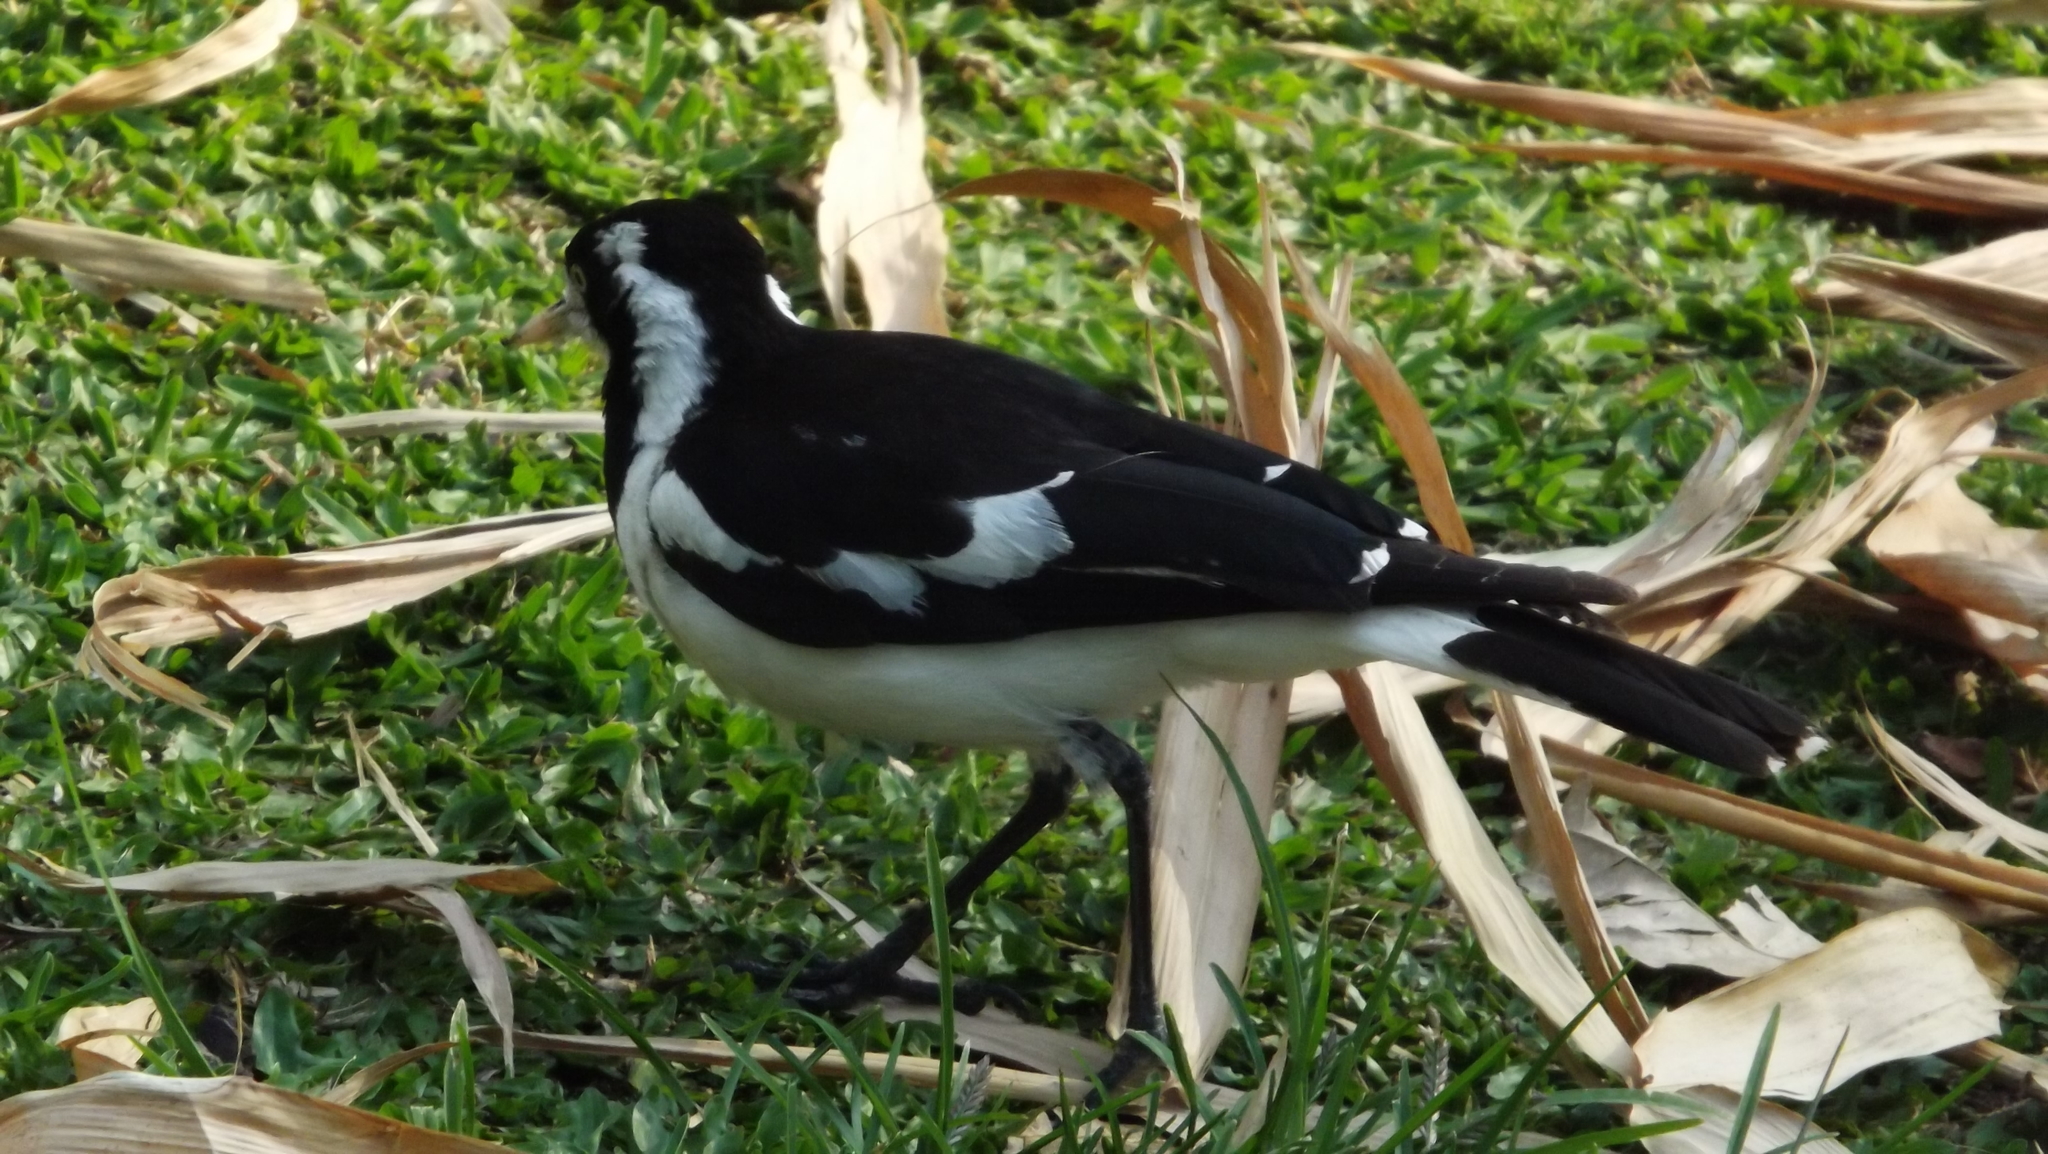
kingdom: Animalia
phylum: Chordata
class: Aves
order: Passeriformes
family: Monarchidae
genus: Grallina
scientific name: Grallina cyanoleuca
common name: Magpie-lark
